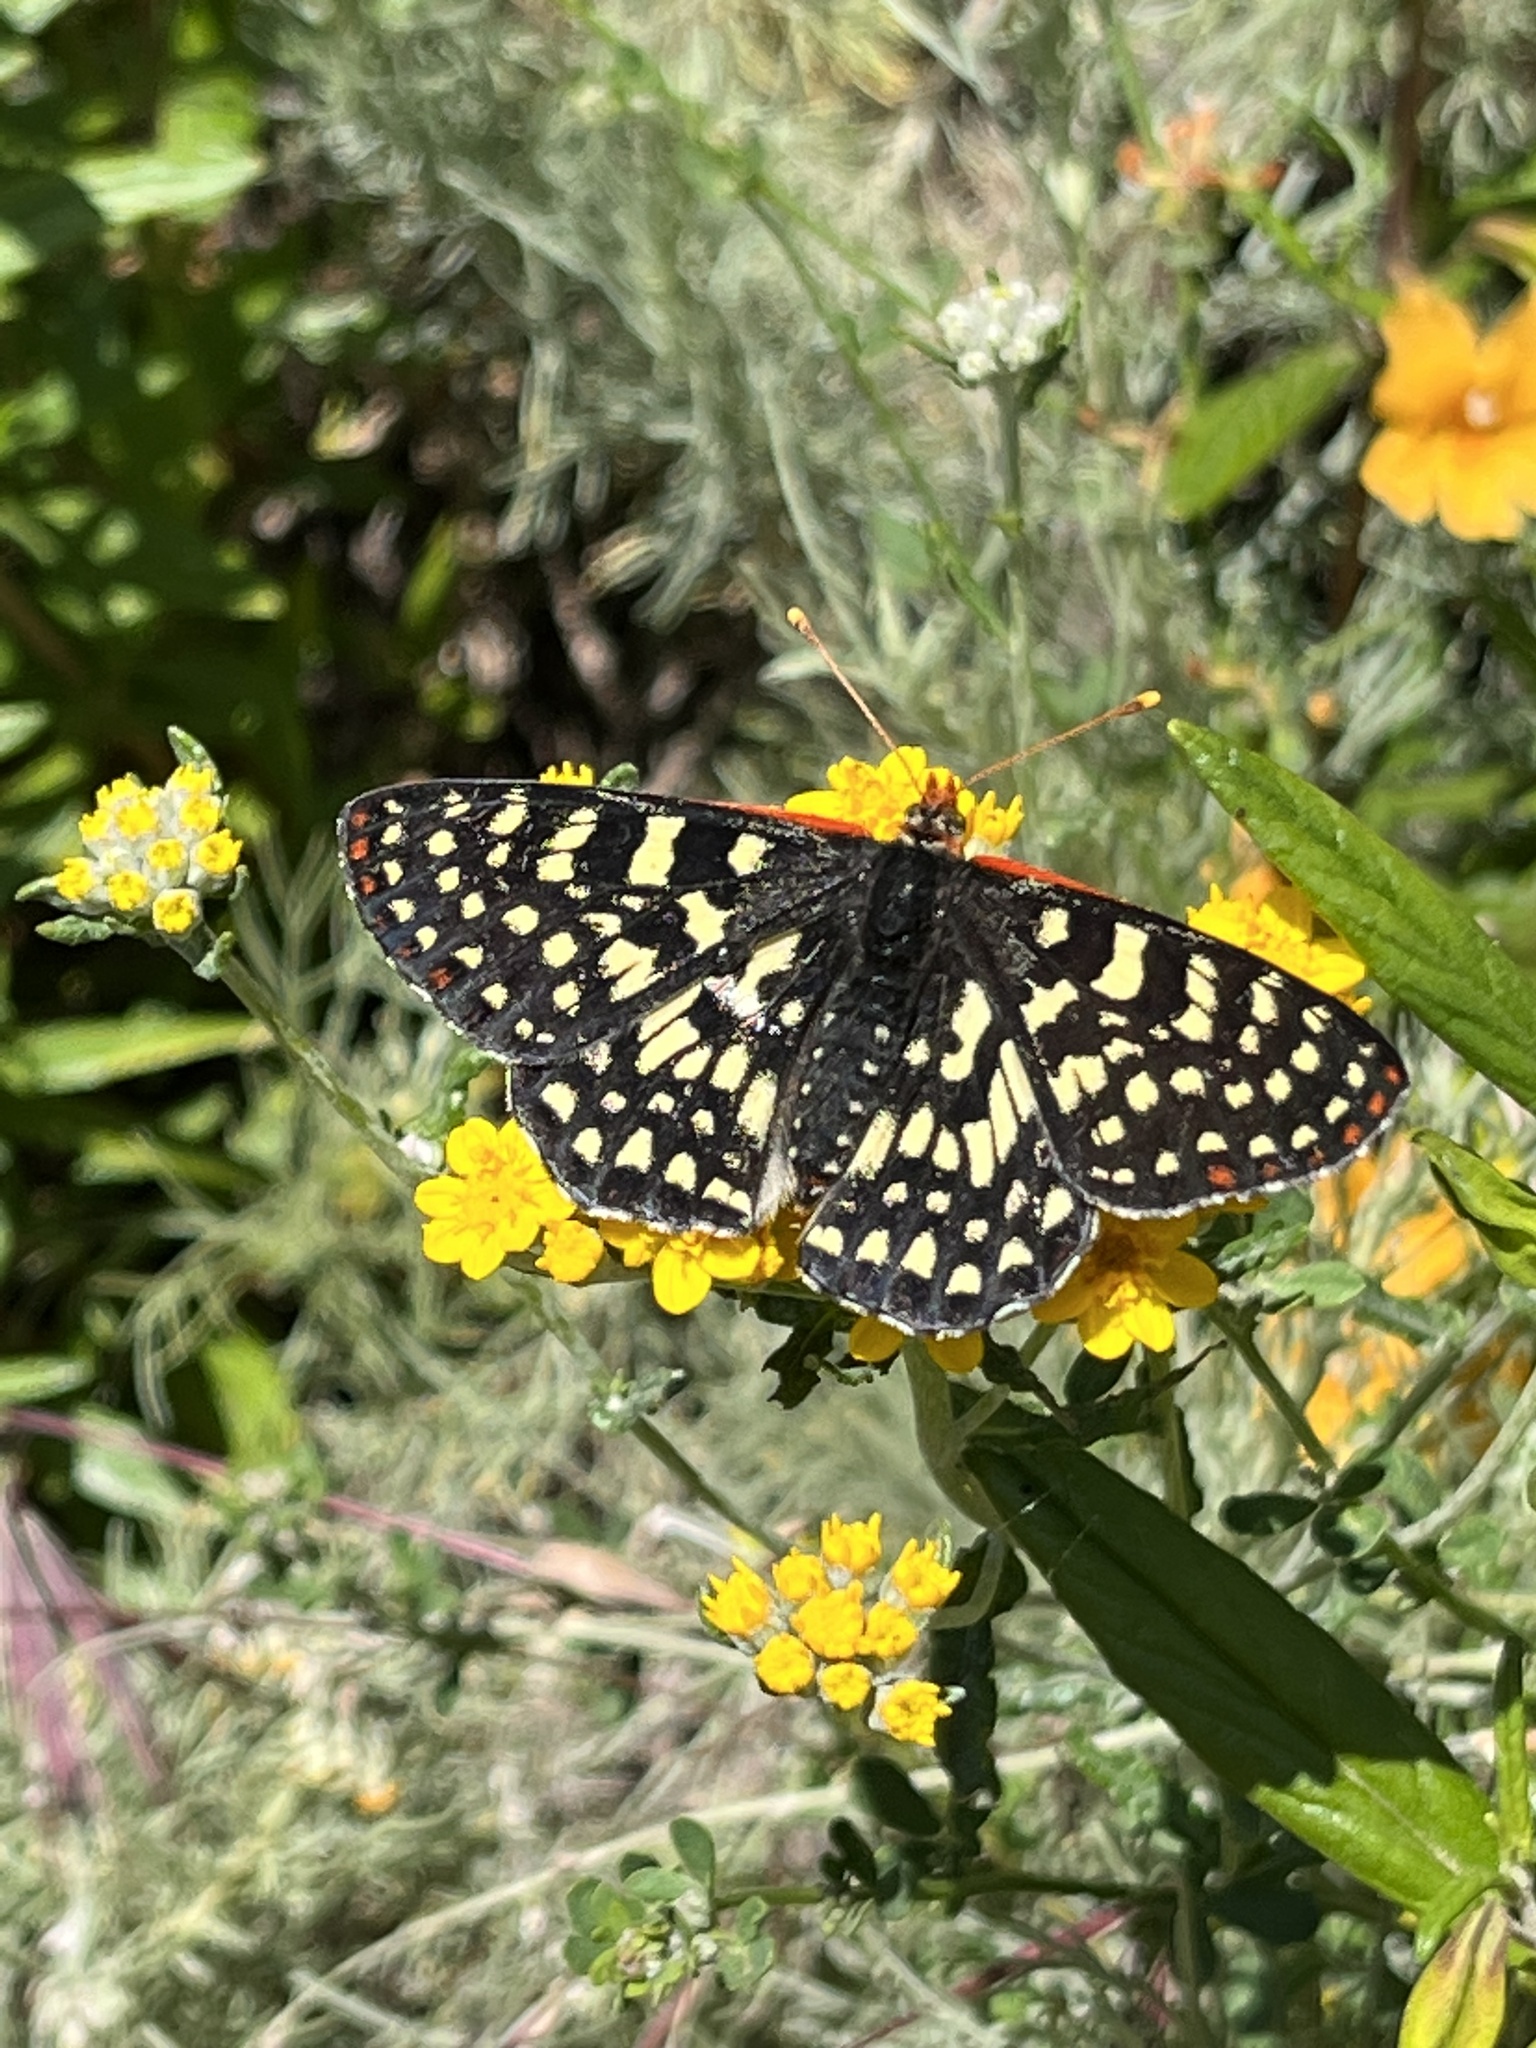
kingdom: Animalia
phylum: Arthropoda
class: Insecta
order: Lepidoptera
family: Nymphalidae
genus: Occidryas
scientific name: Occidryas chalcedona
